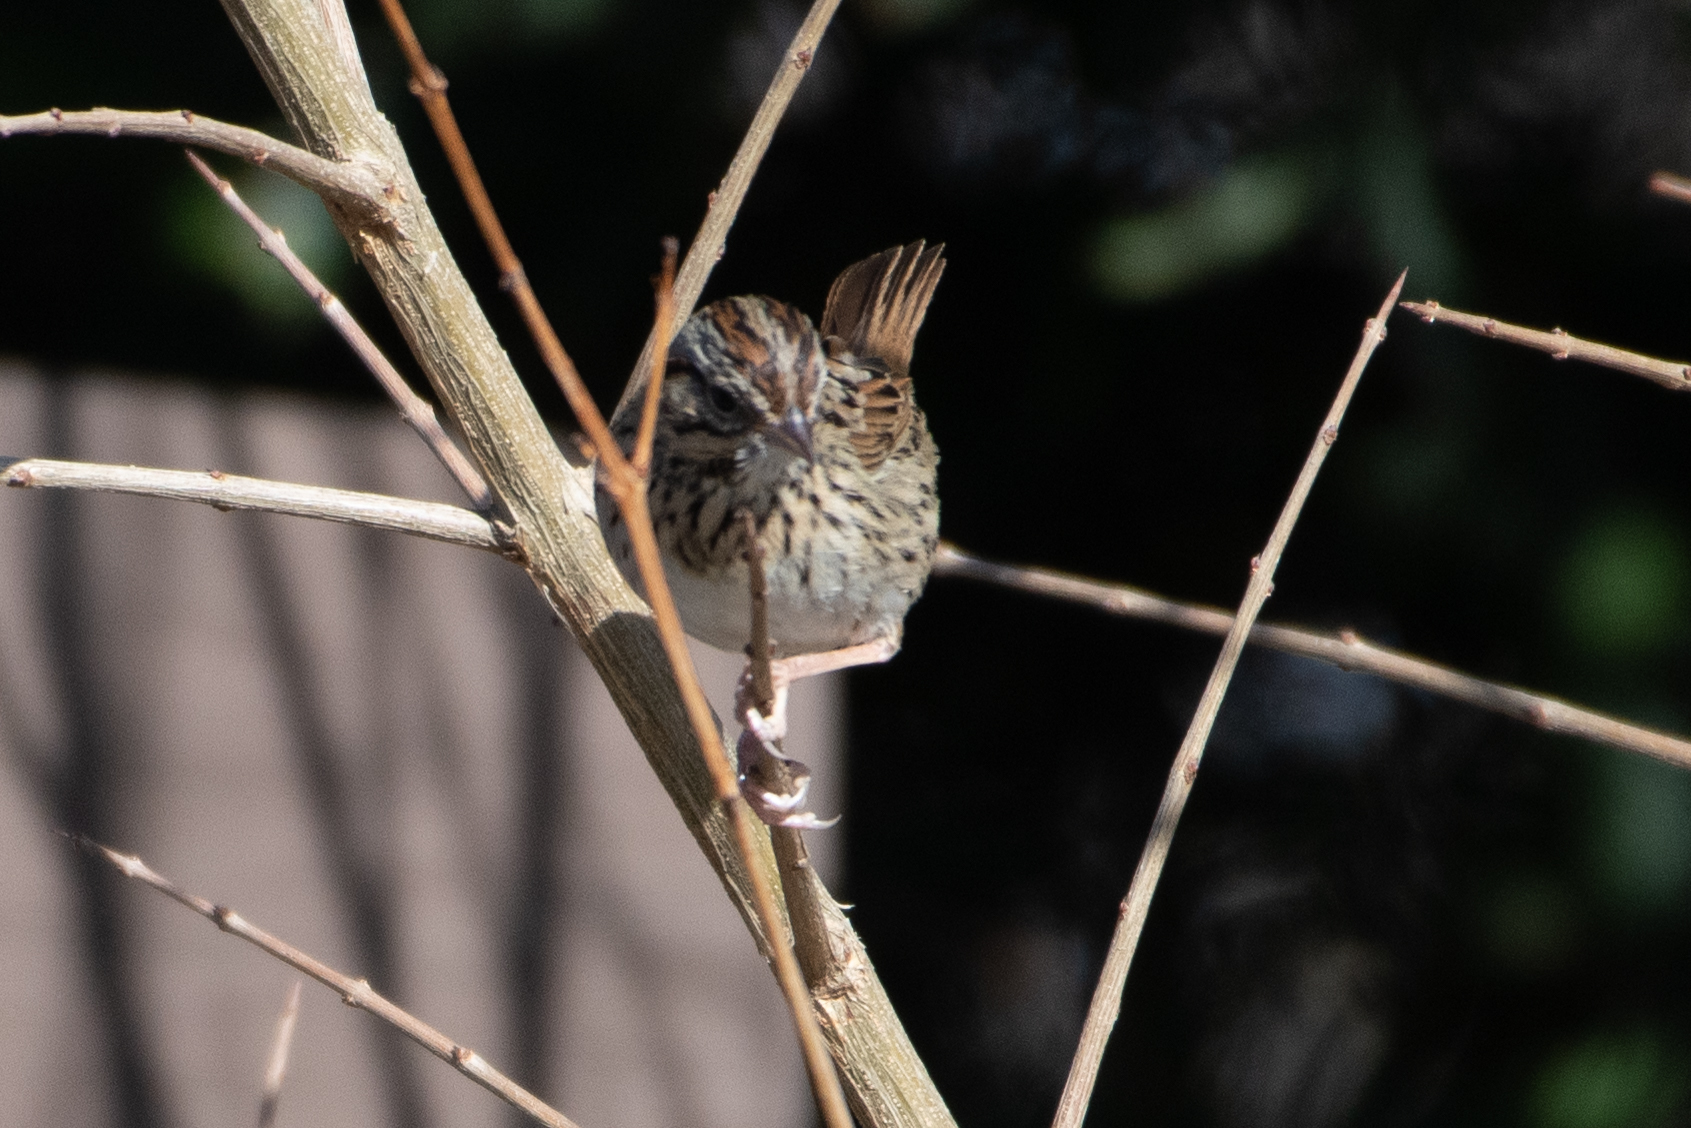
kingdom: Animalia
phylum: Chordata
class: Aves
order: Passeriformes
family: Passerellidae
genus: Melospiza
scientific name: Melospiza lincolnii
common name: Lincoln's sparrow
